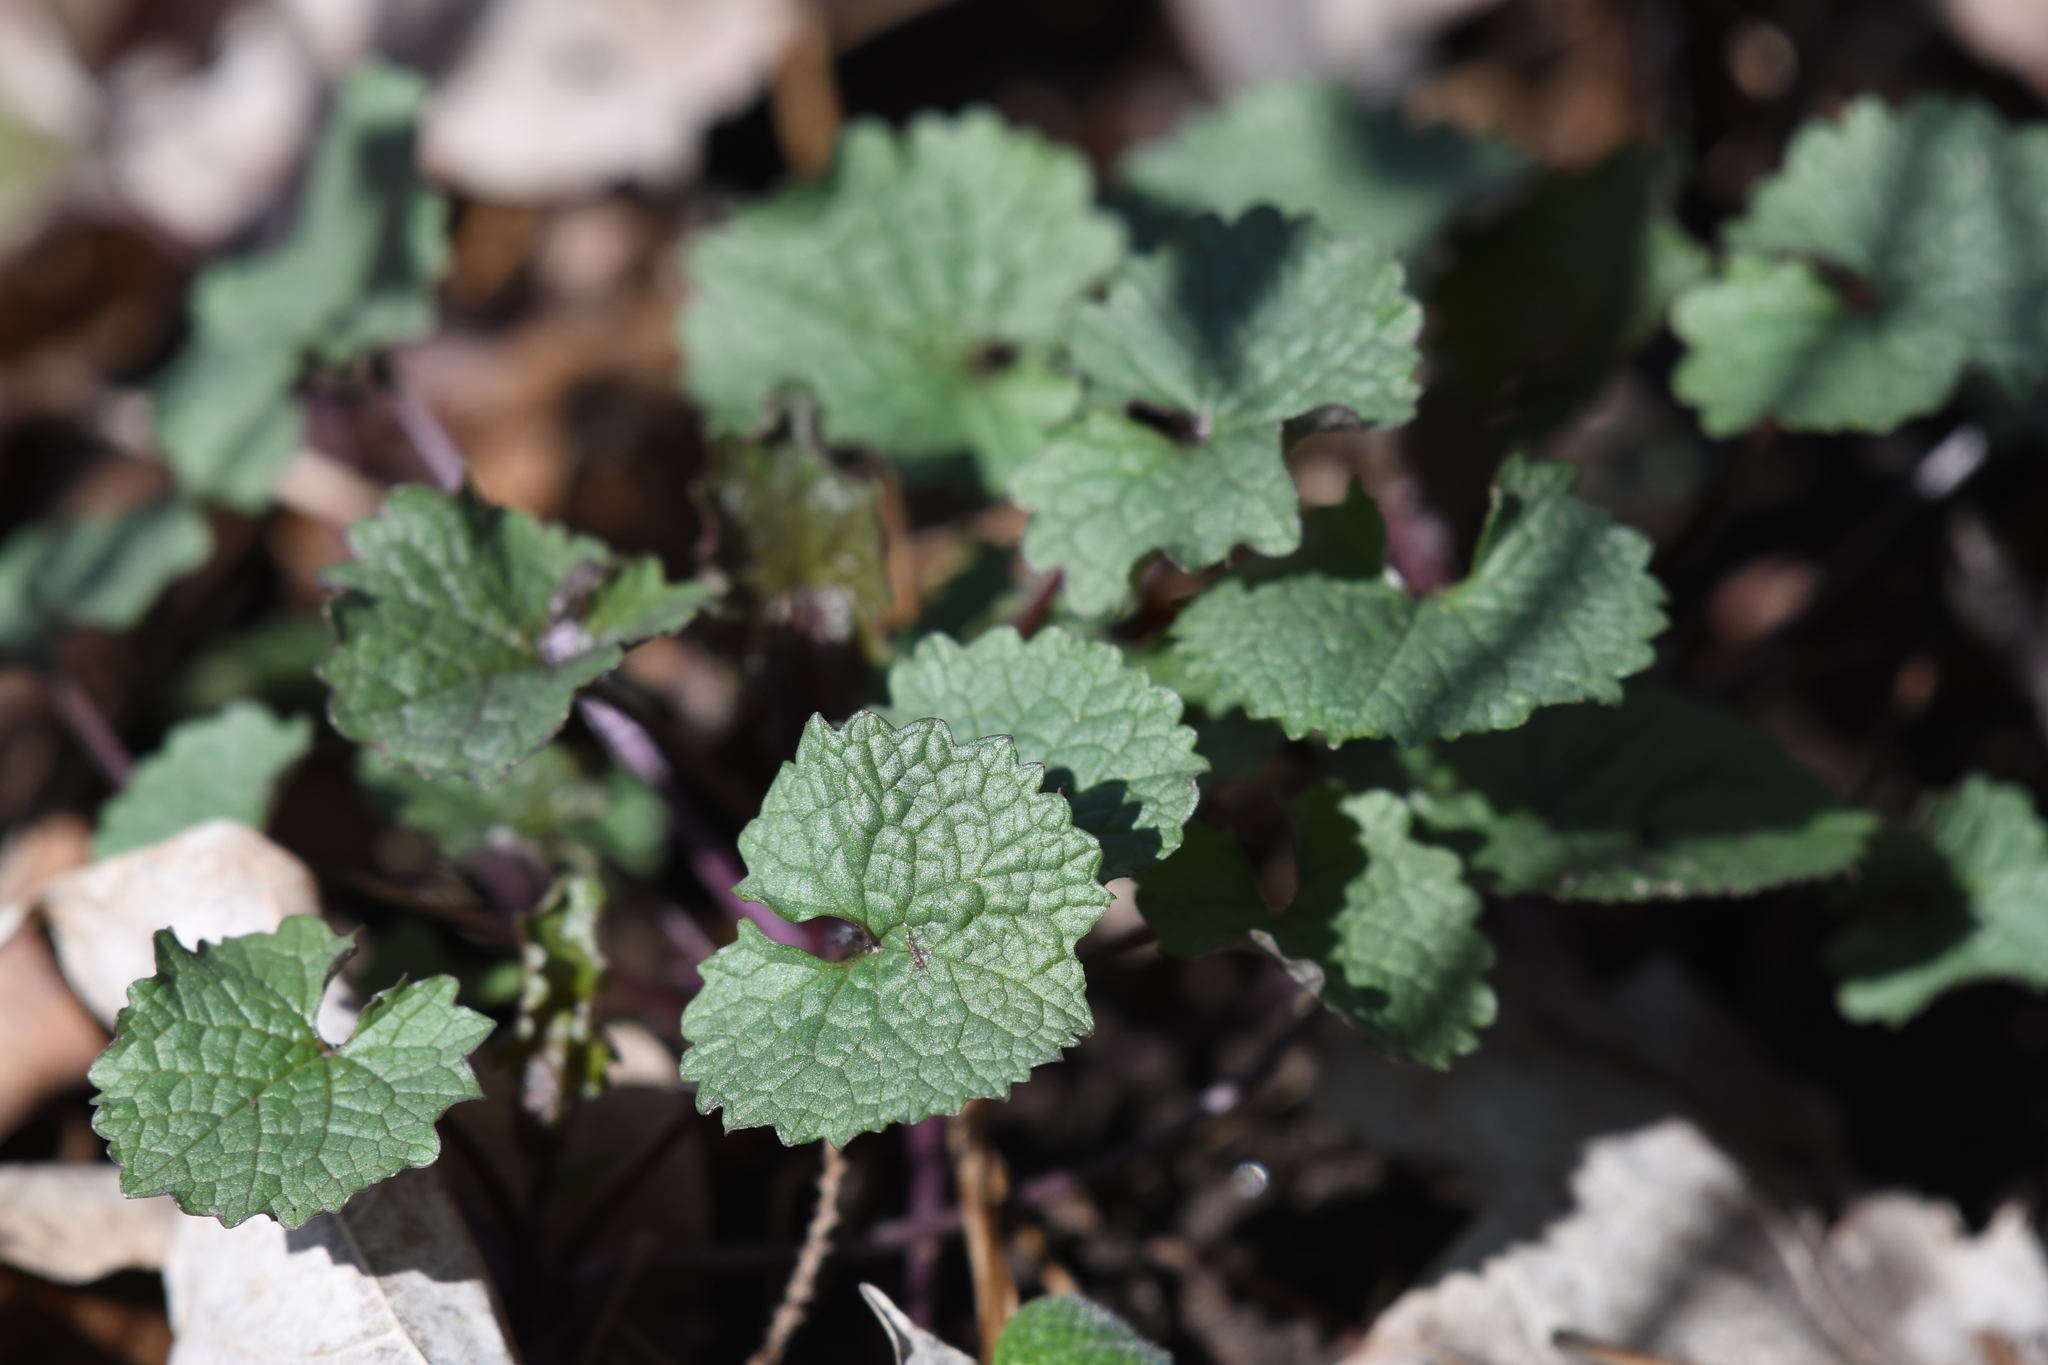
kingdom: Plantae
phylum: Tracheophyta
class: Magnoliopsida
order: Brassicales
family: Brassicaceae
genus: Alliaria
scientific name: Alliaria petiolata
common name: Garlic mustard
